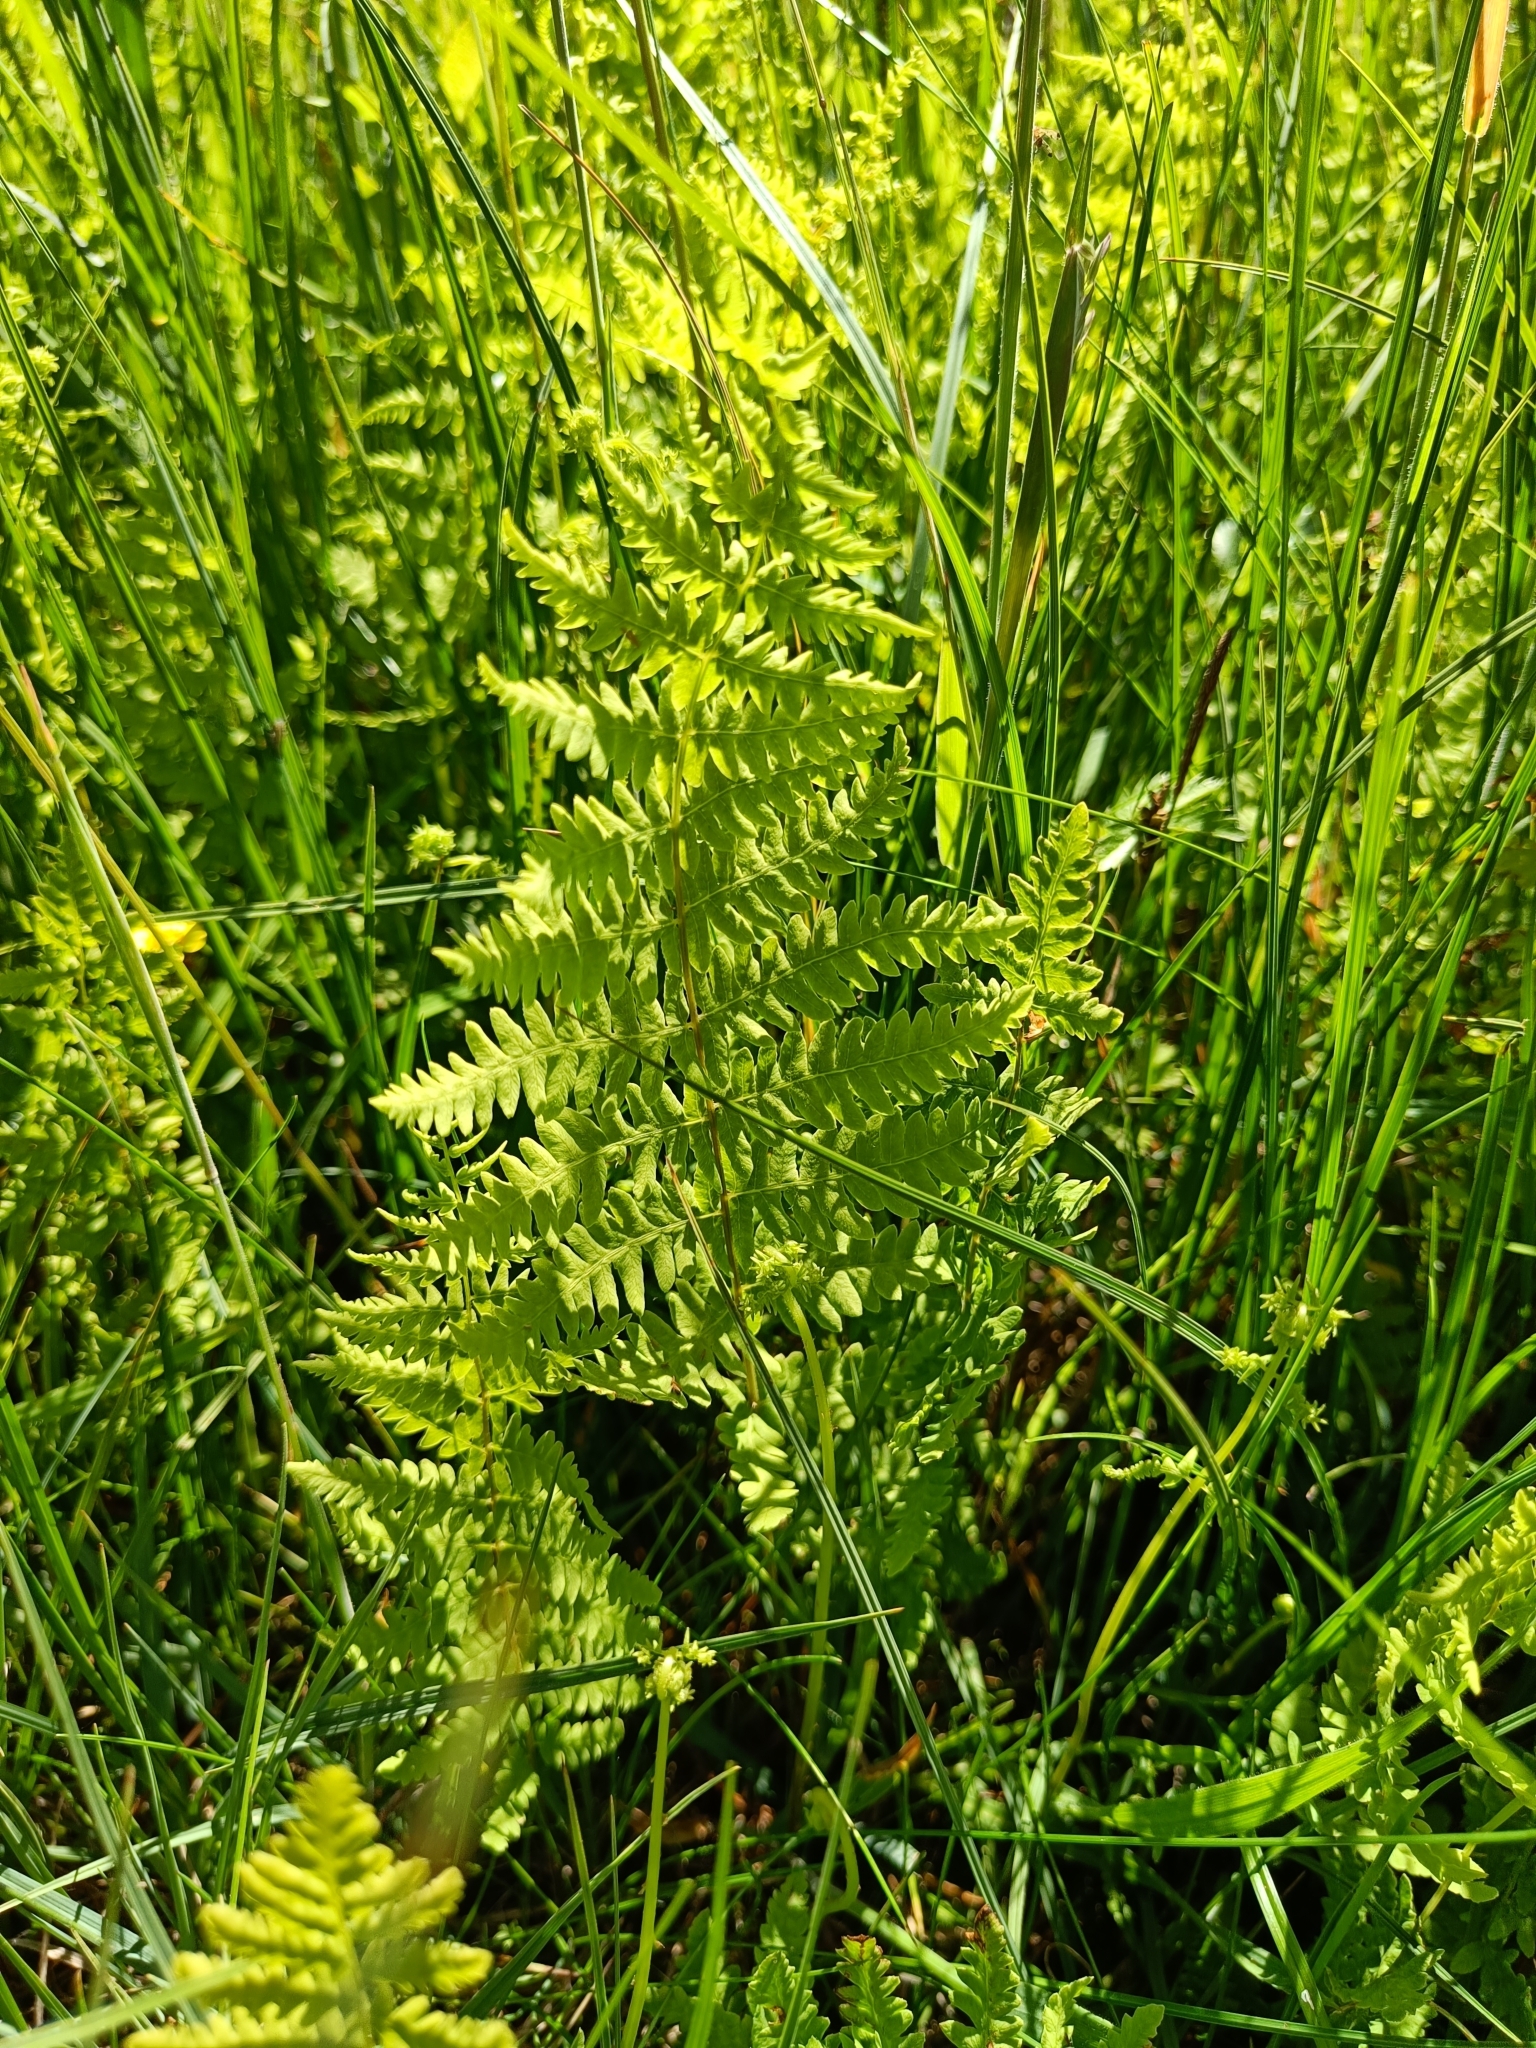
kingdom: Plantae
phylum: Tracheophyta
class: Polypodiopsida
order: Polypodiales
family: Thelypteridaceae
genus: Thelypteris
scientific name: Thelypteris palustris
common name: Marsh fern
